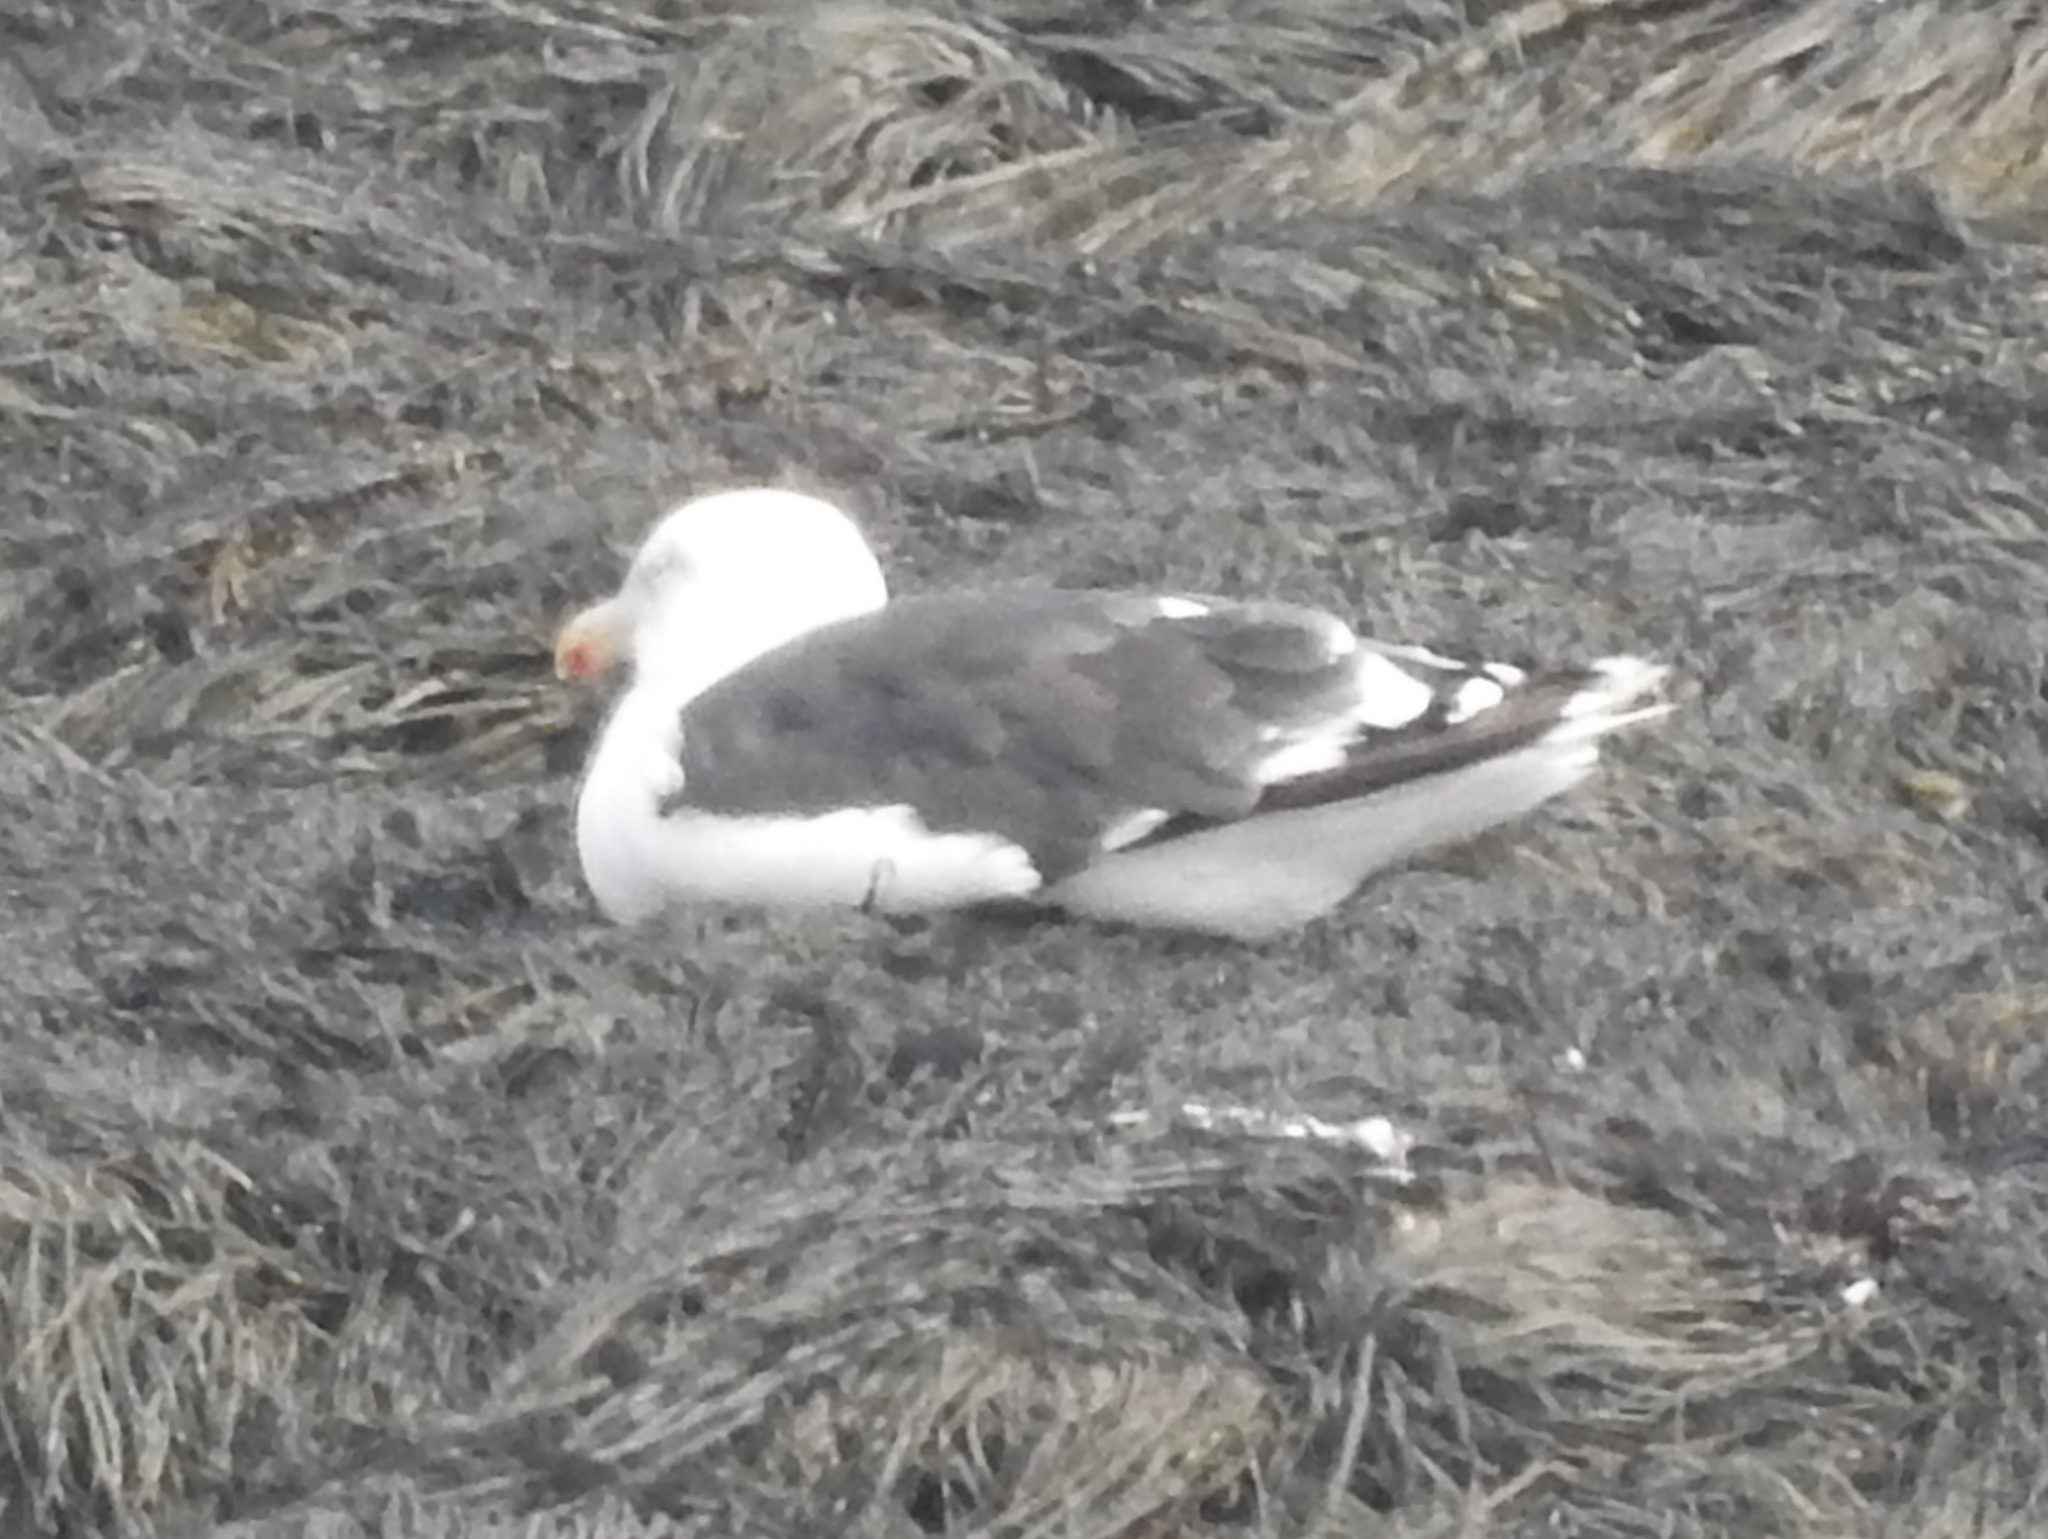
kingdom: Animalia
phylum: Chordata
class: Aves
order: Charadriiformes
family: Laridae
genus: Larus
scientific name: Larus marinus
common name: Great black-backed gull
